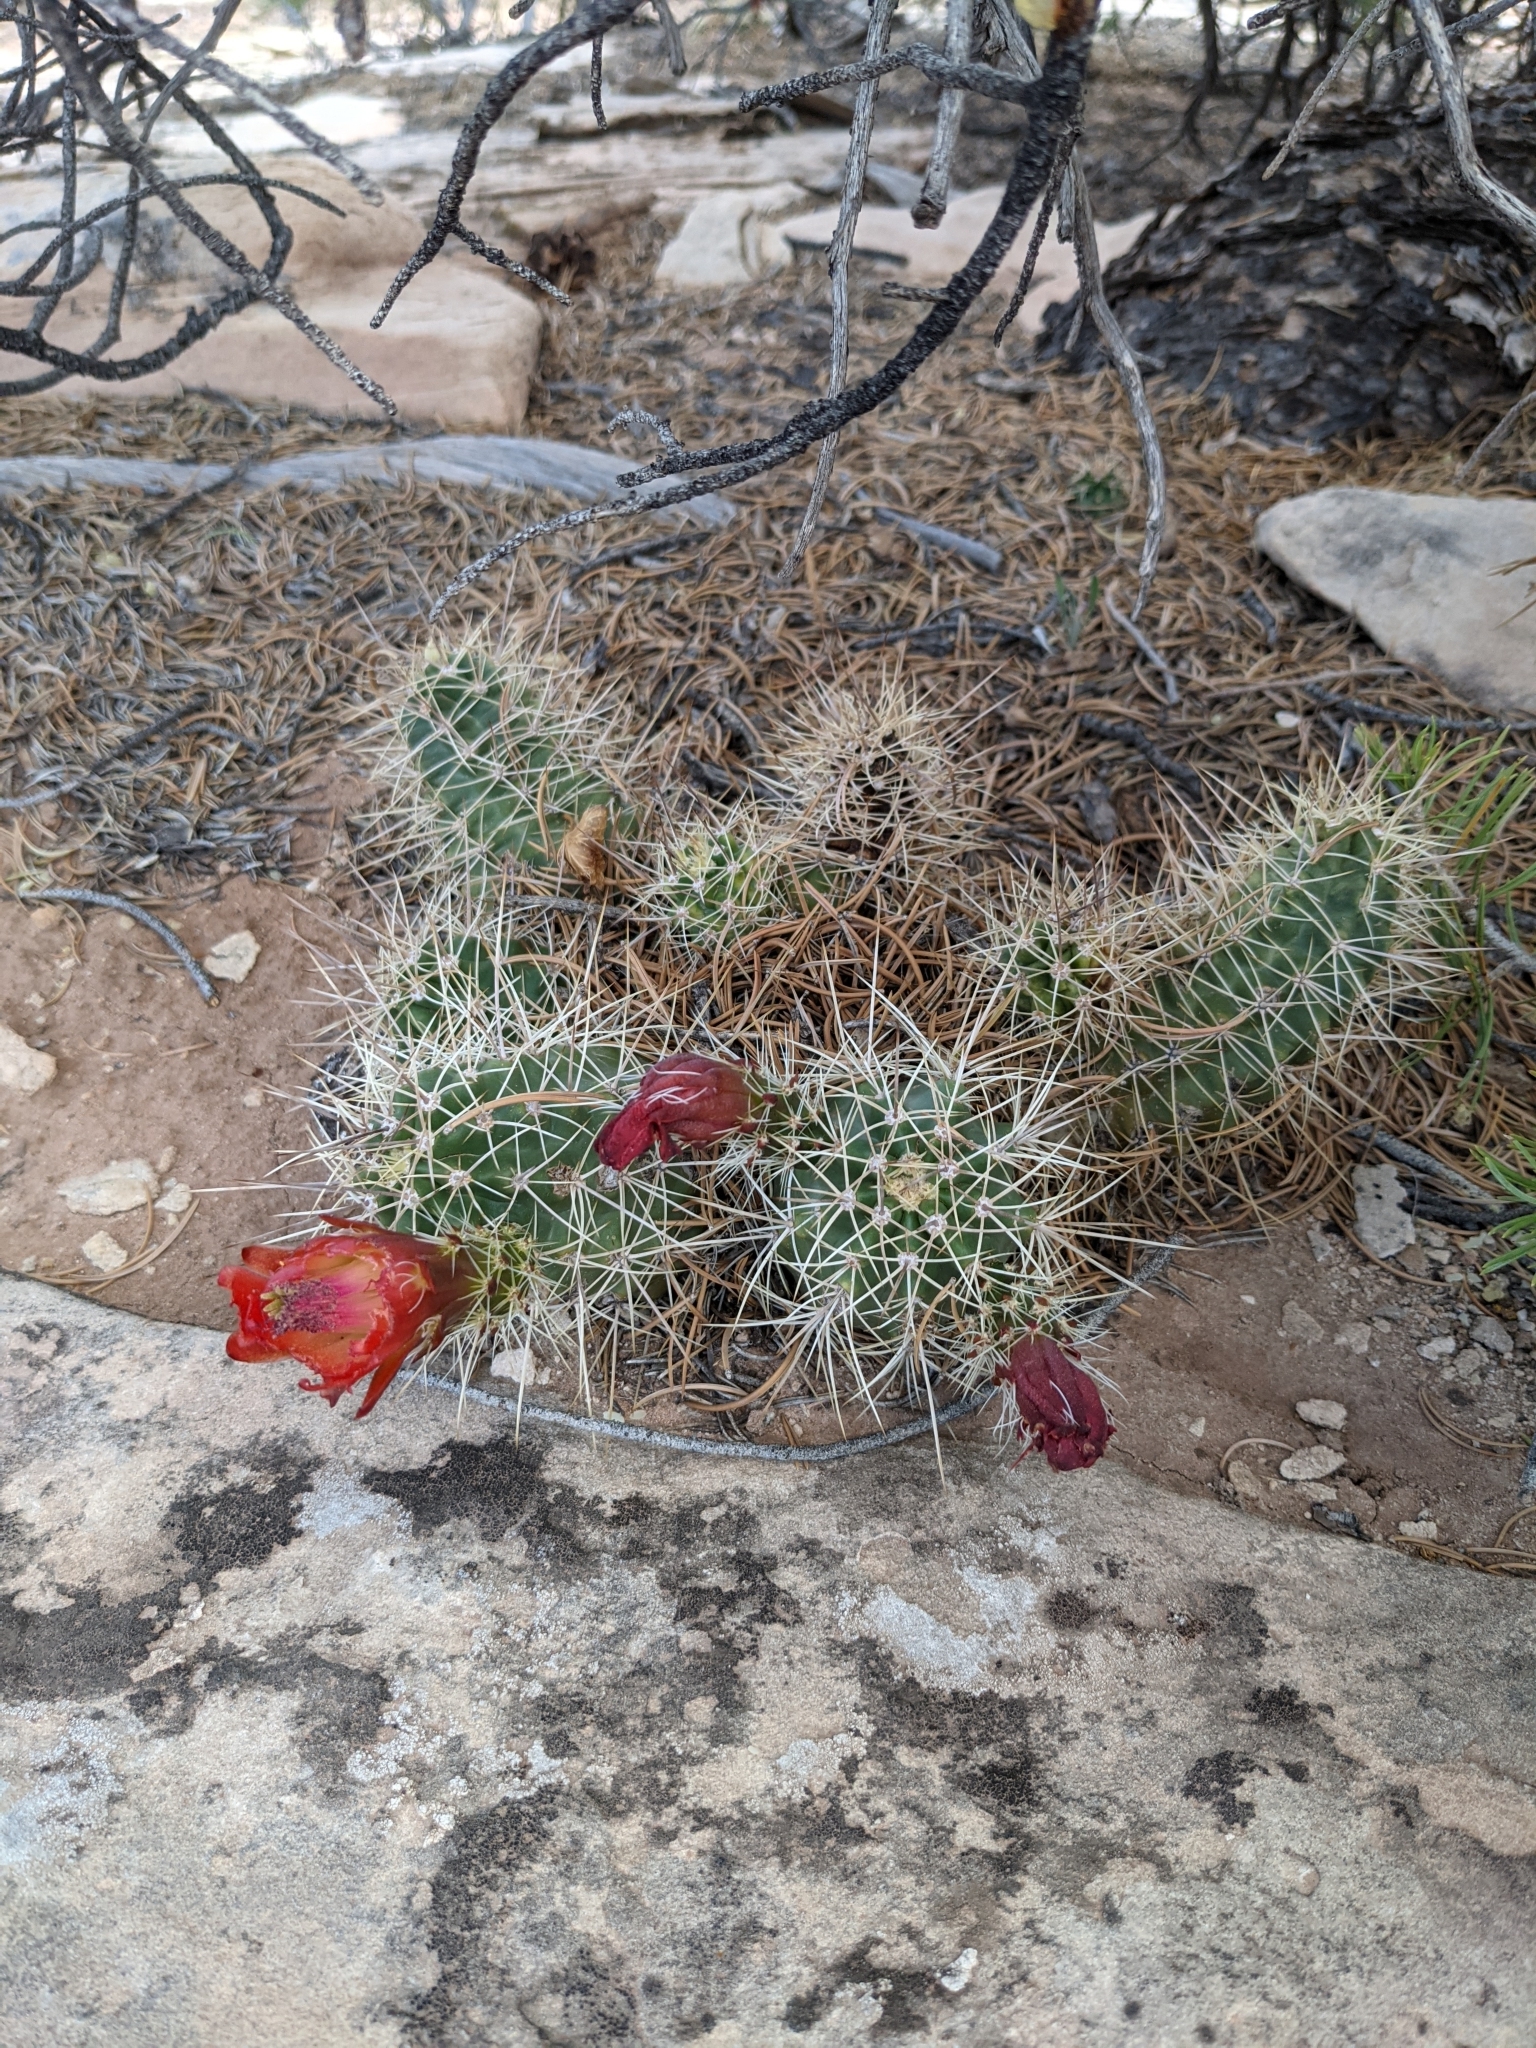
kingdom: Plantae
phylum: Tracheophyta
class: Magnoliopsida
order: Caryophyllales
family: Cactaceae
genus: Echinocereus
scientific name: Echinocereus triglochidiatus
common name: Claretcup hedgehog
